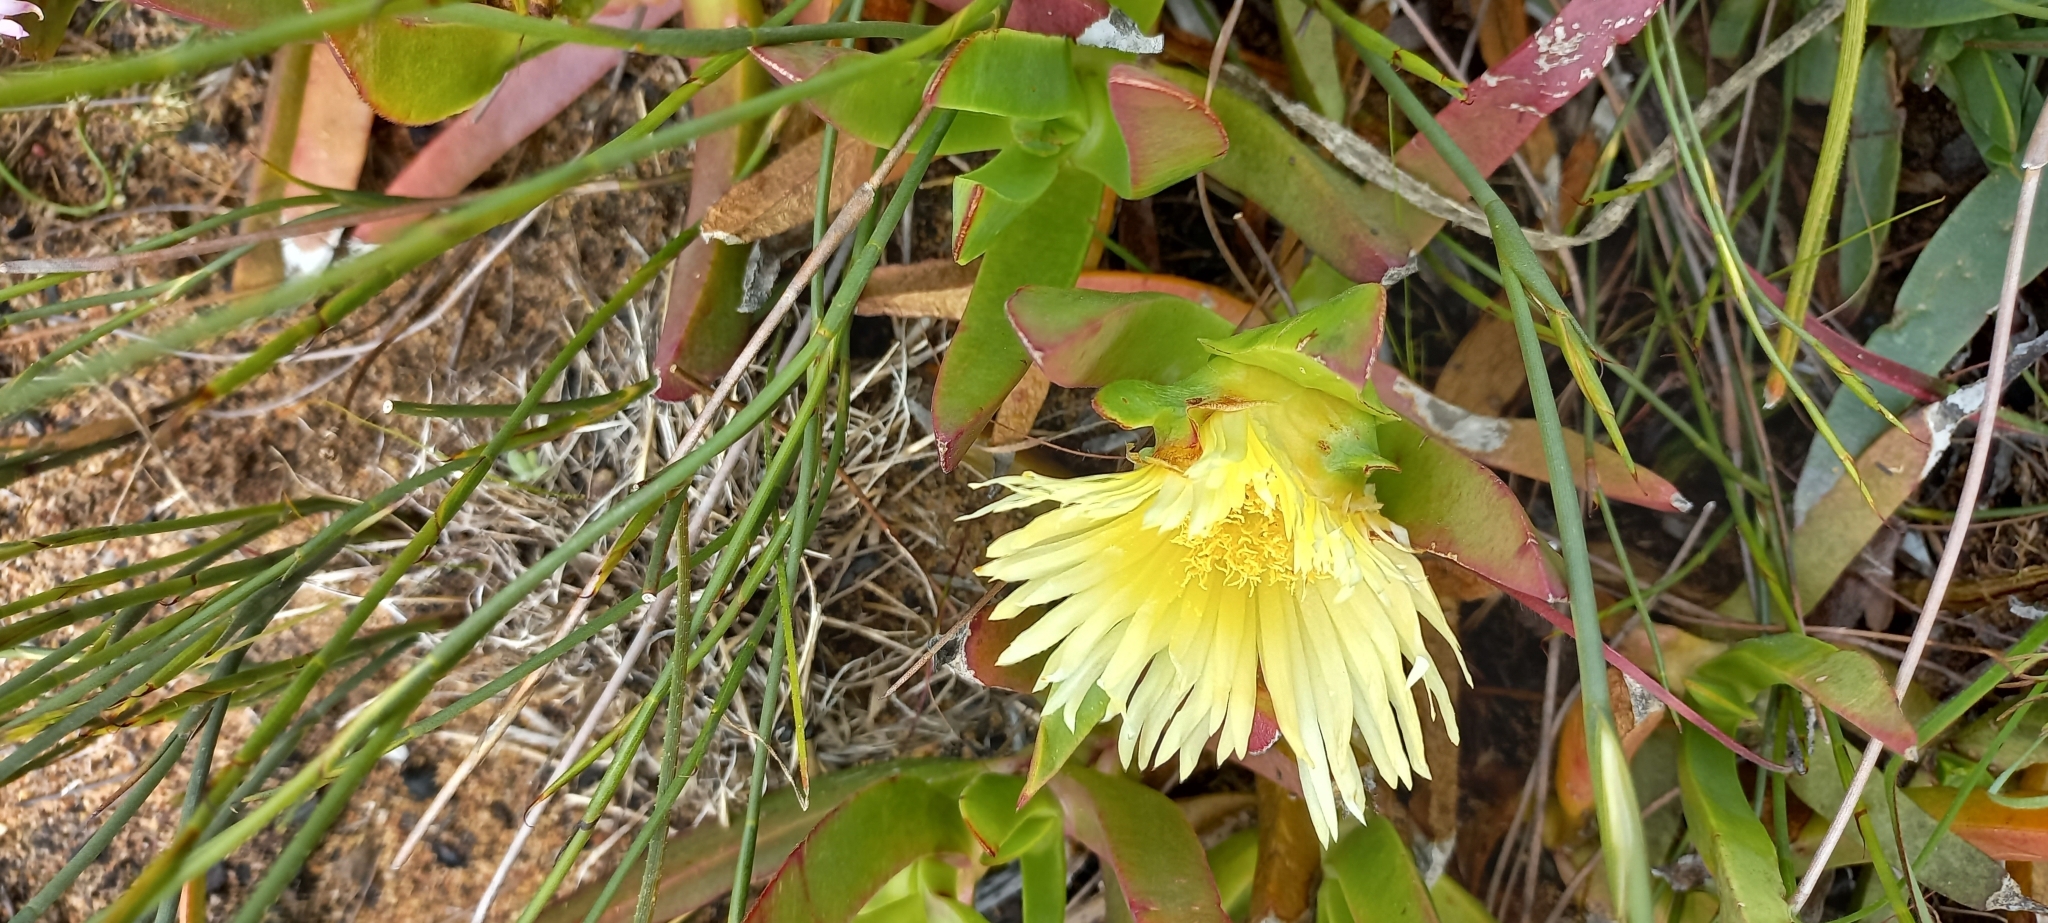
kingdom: Plantae
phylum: Tracheophyta
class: Magnoliopsida
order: Caryophyllales
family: Aizoaceae
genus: Carpobrotus
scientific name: Carpobrotus edulis
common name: Hottentot-fig
